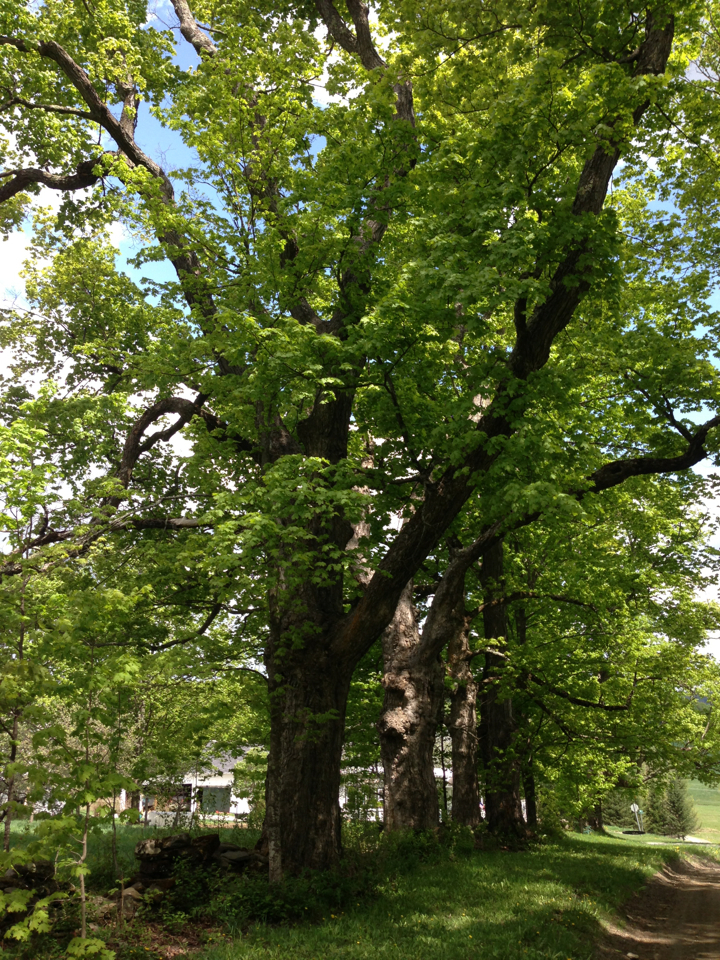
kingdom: Plantae
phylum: Tracheophyta
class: Magnoliopsida
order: Sapindales
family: Sapindaceae
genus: Acer
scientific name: Acer saccharum
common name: Sugar maple
